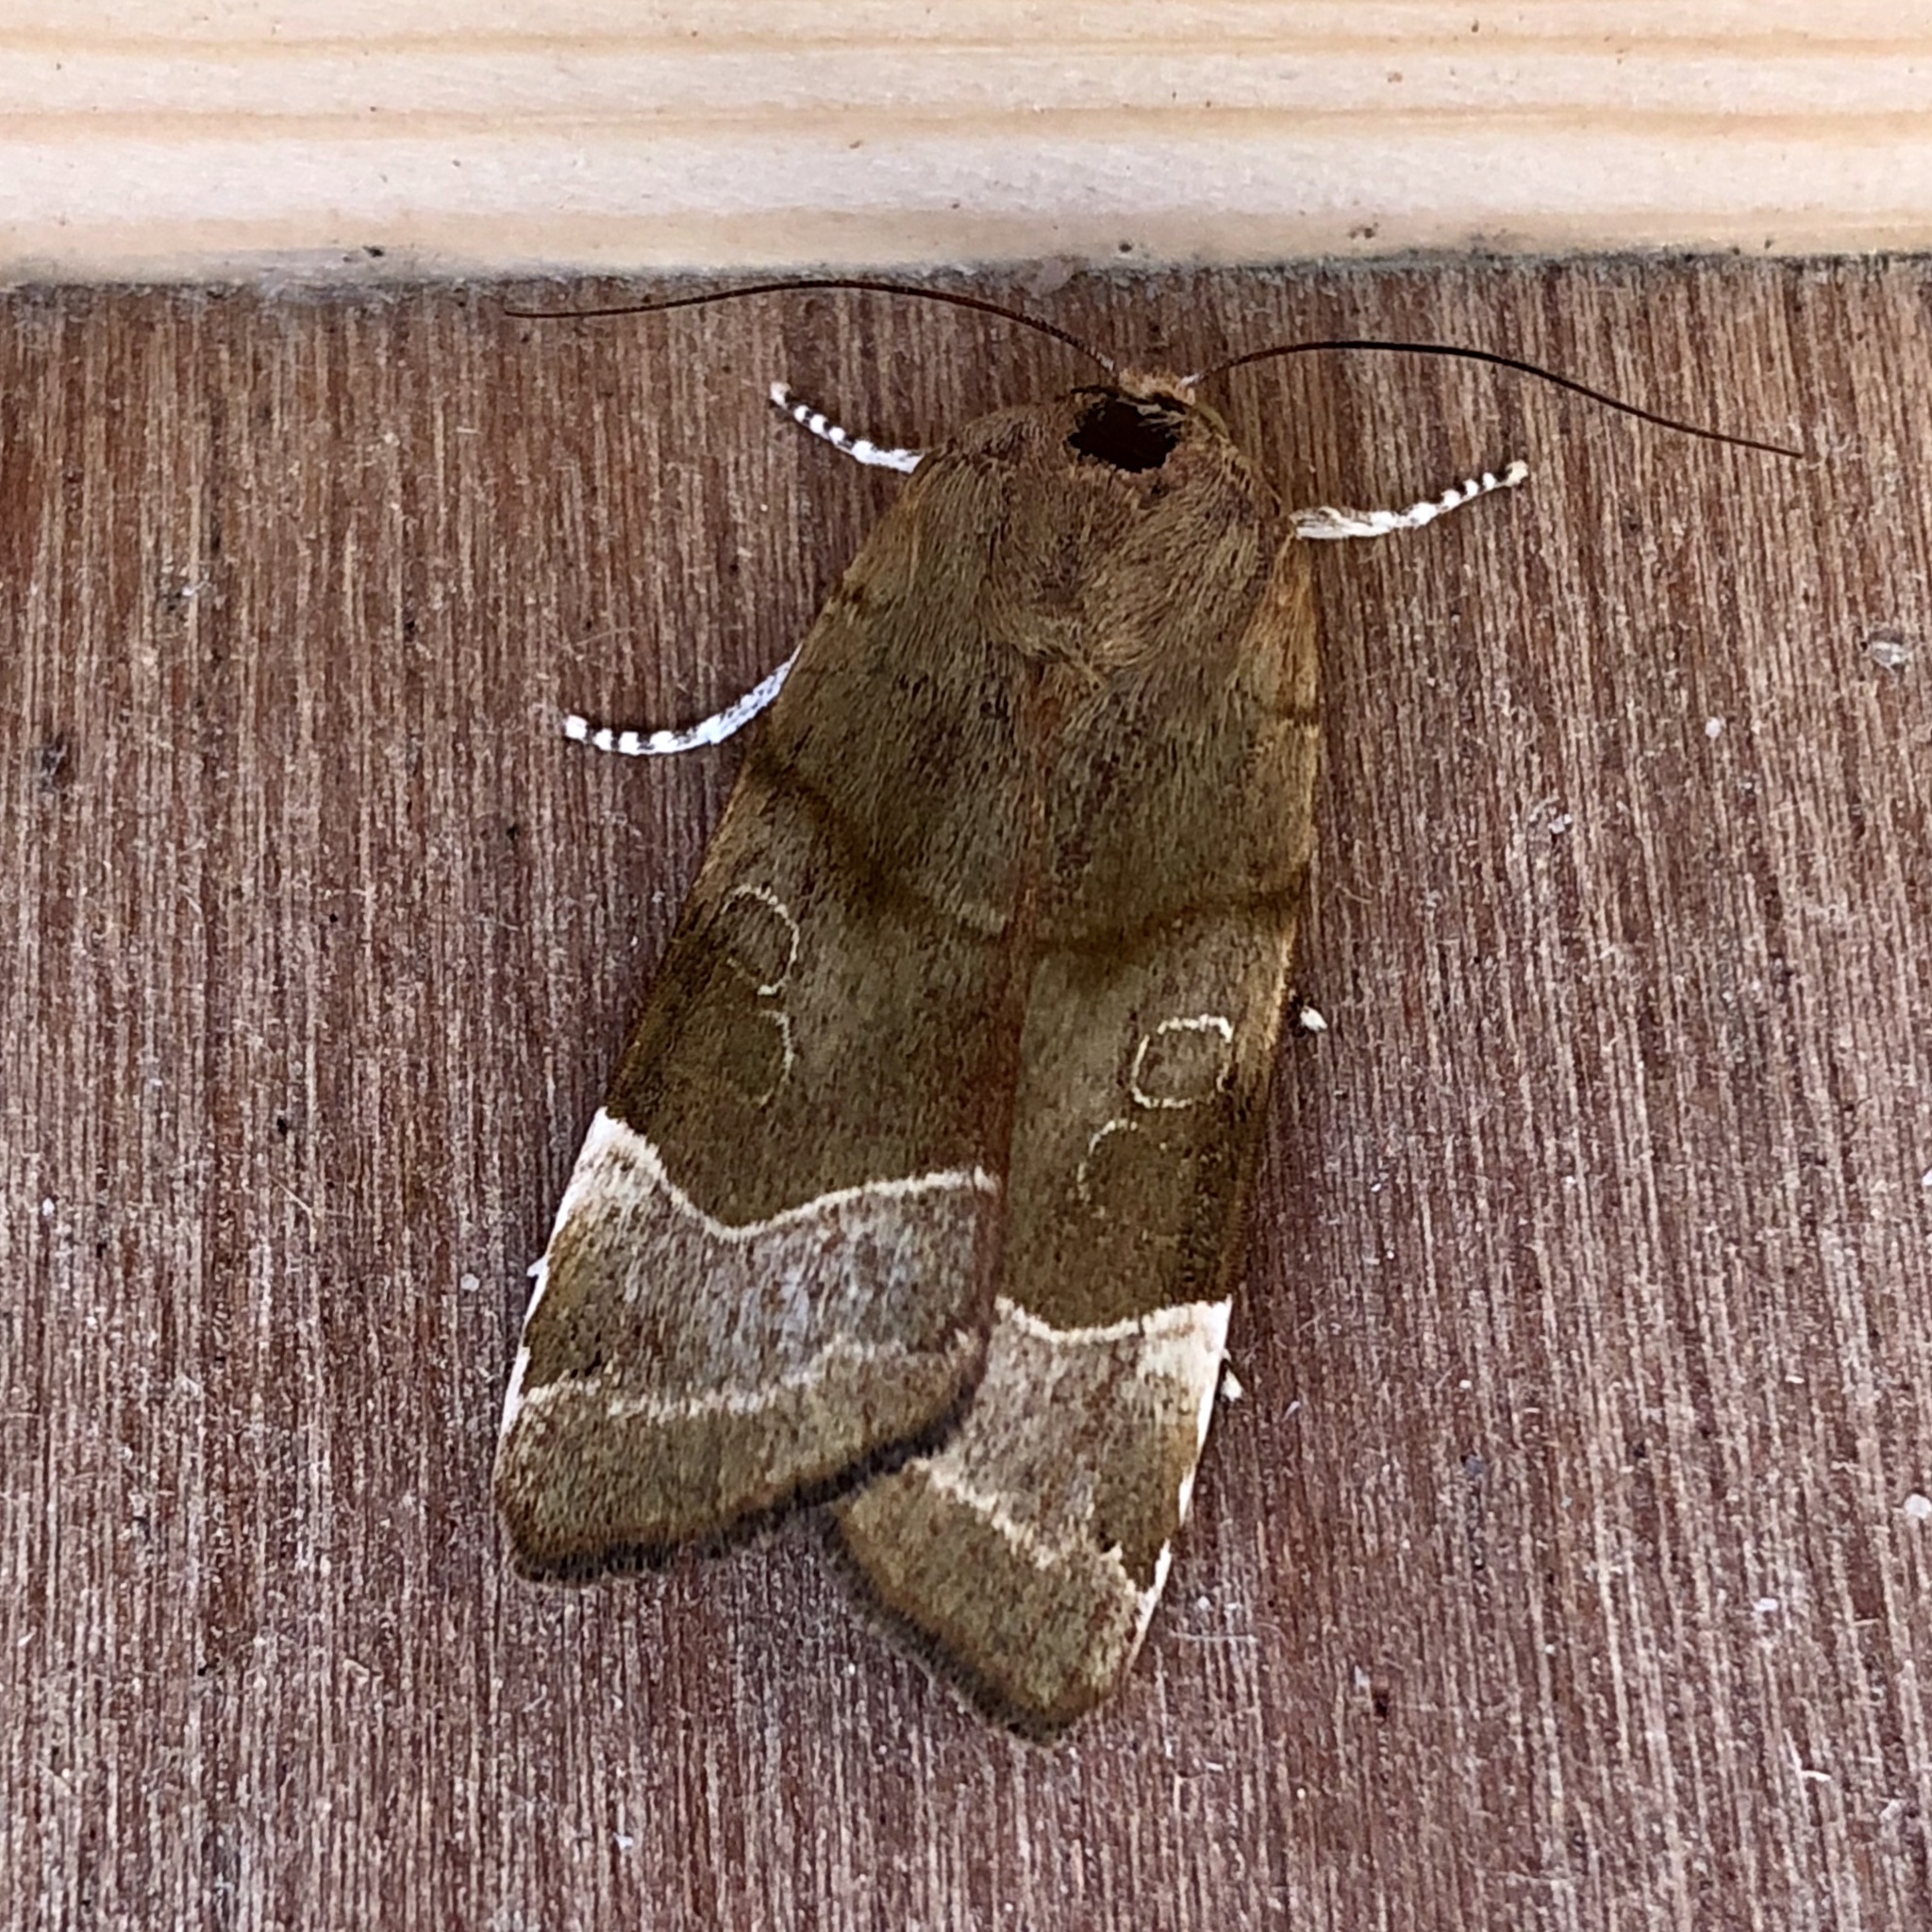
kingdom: Animalia
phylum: Arthropoda
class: Insecta
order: Lepidoptera
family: Noctuidae
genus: Noctua
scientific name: Noctua fimbriata
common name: Broad-bordered yellow underwing
